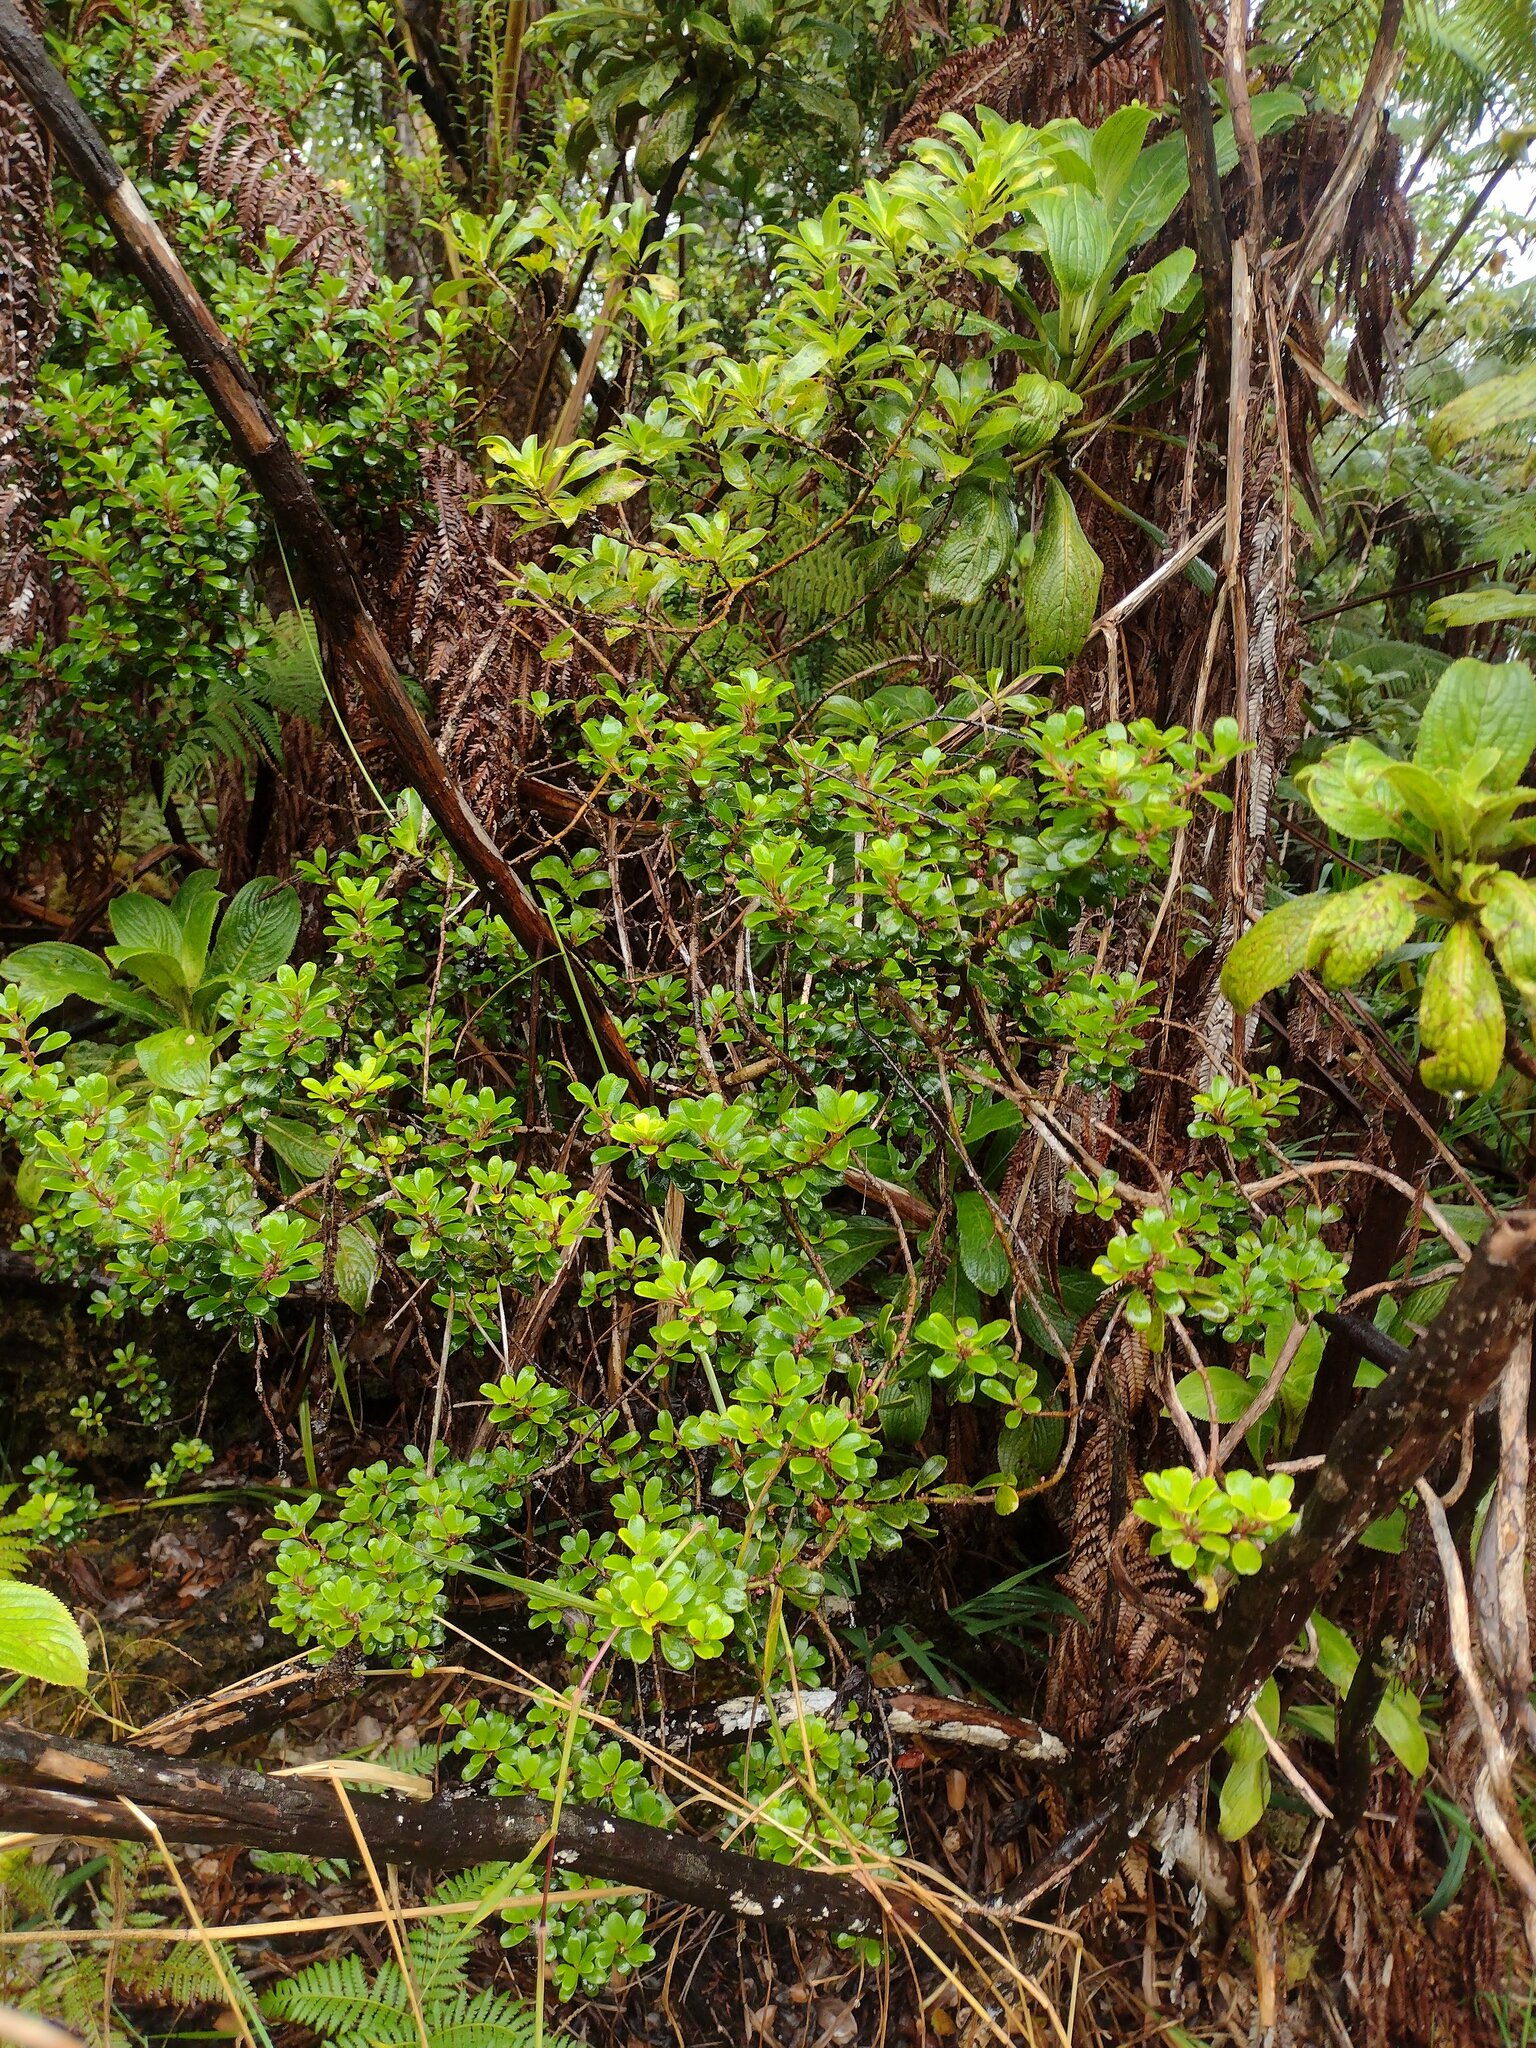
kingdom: Plantae
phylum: Tracheophyta
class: Magnoliopsida
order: Ericales
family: Primulaceae
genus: Myrsine
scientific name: Myrsine sandwicensis
